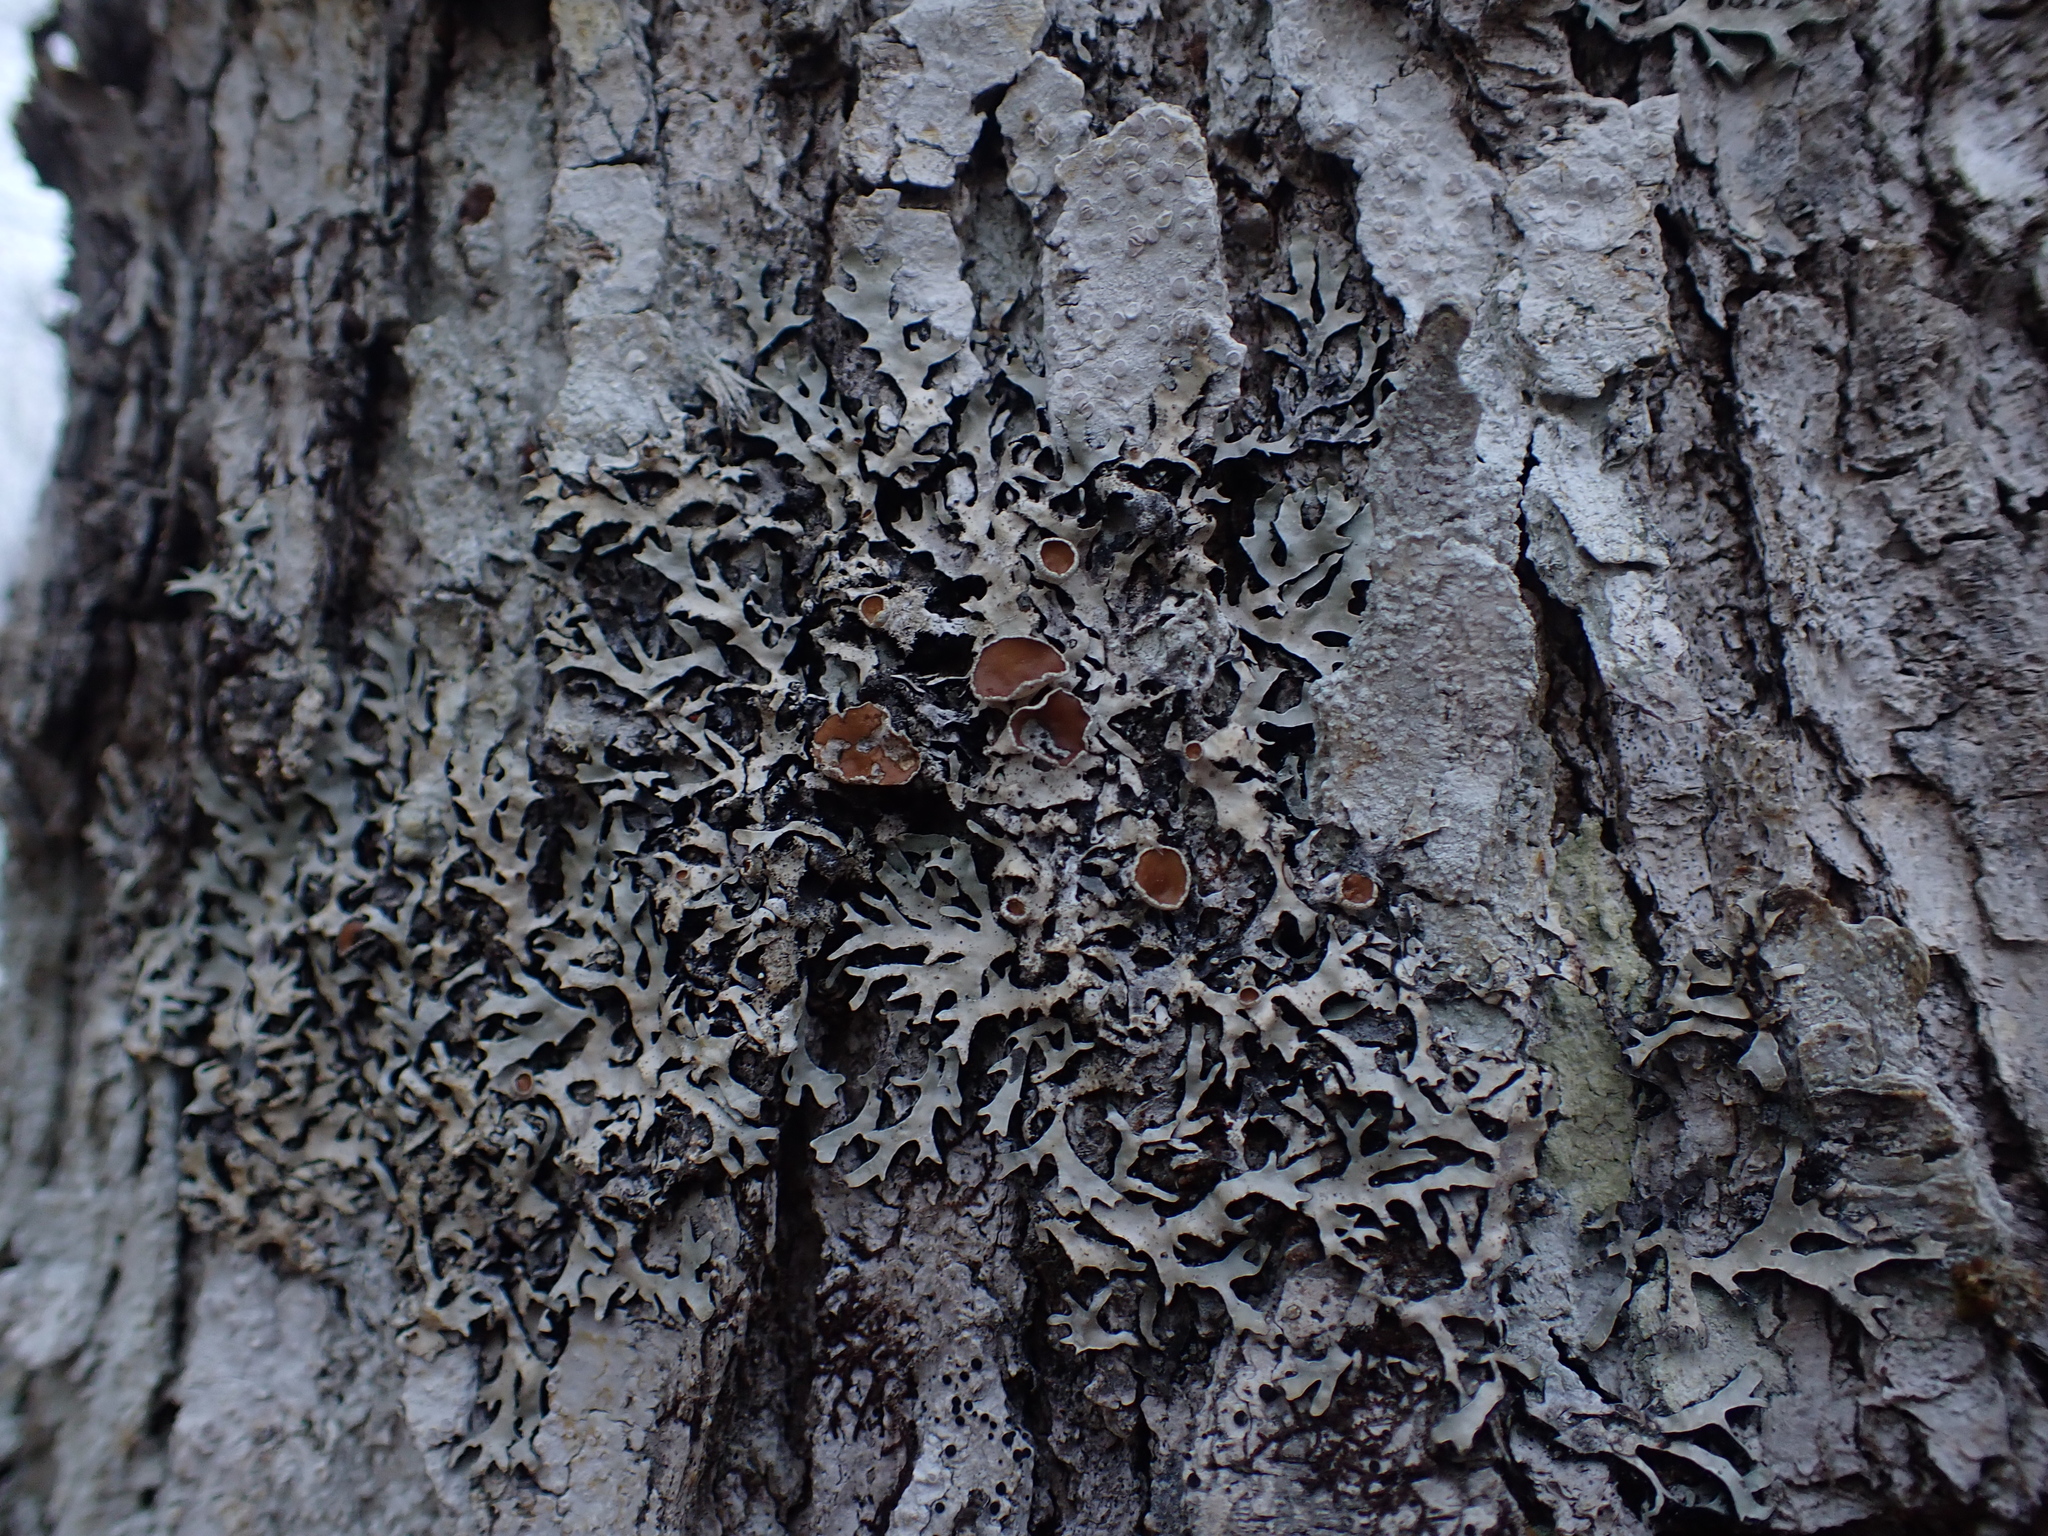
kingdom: Fungi
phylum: Ascomycota
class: Lecanoromycetes
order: Lecanorales
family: Parmeliaceae
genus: Parmelia
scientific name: Parmelia squarrosa
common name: Bottle brush shield lichen
